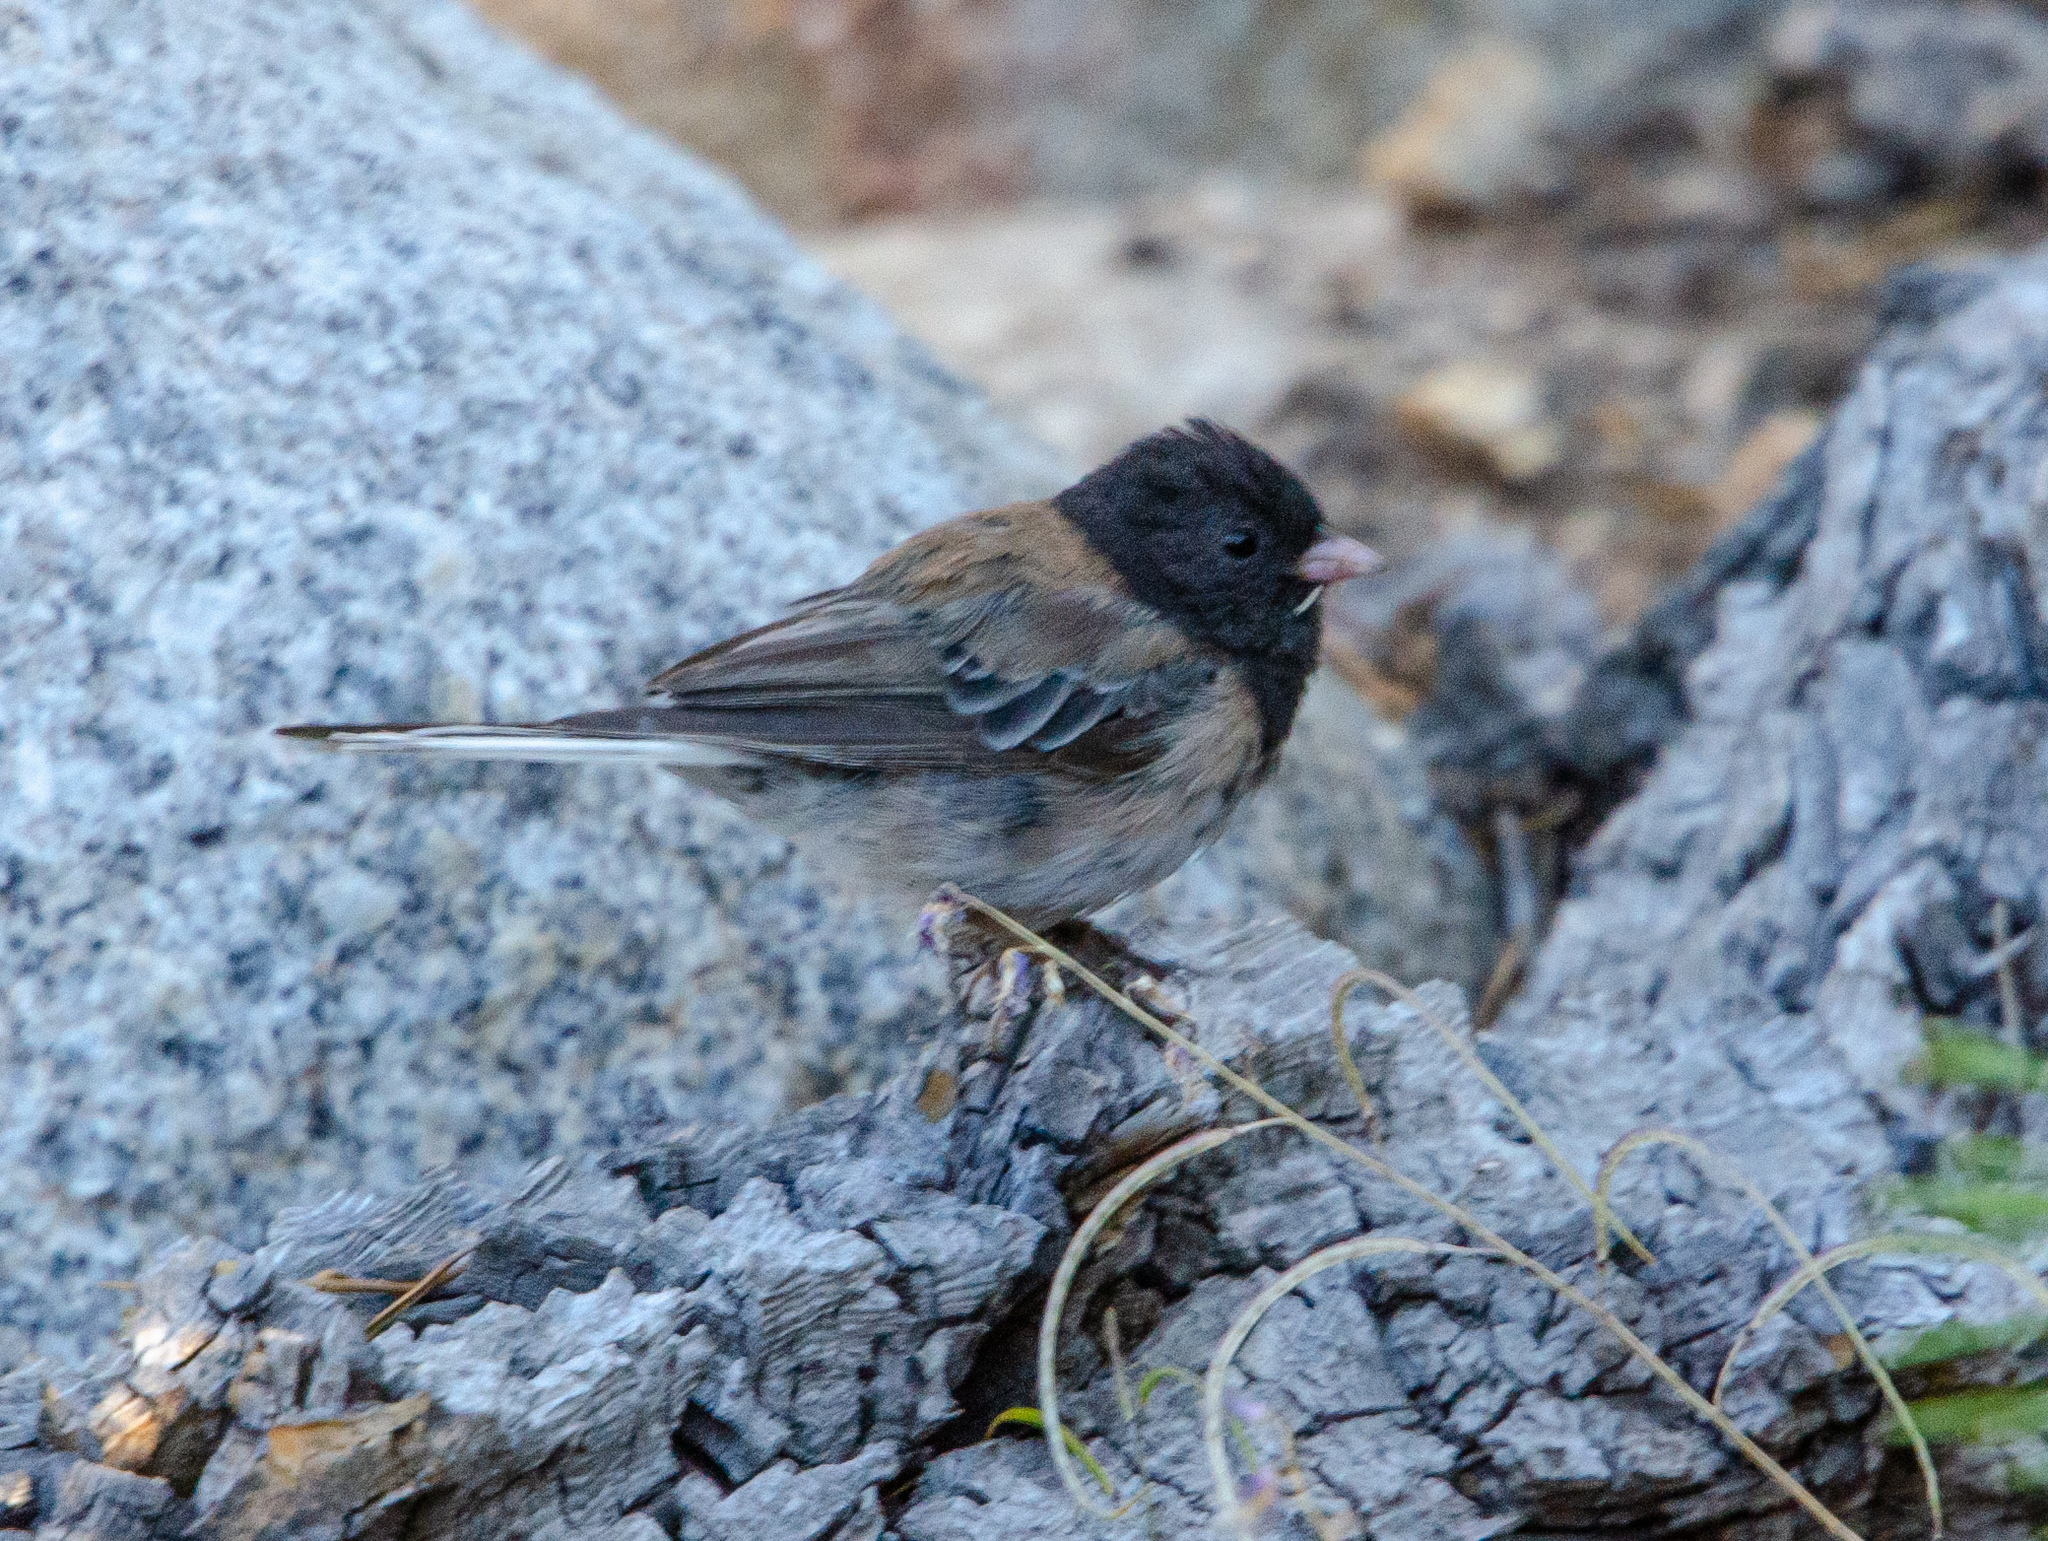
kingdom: Animalia
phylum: Chordata
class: Aves
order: Passeriformes
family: Passerellidae
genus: Junco
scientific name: Junco hyemalis
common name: Dark-eyed junco
